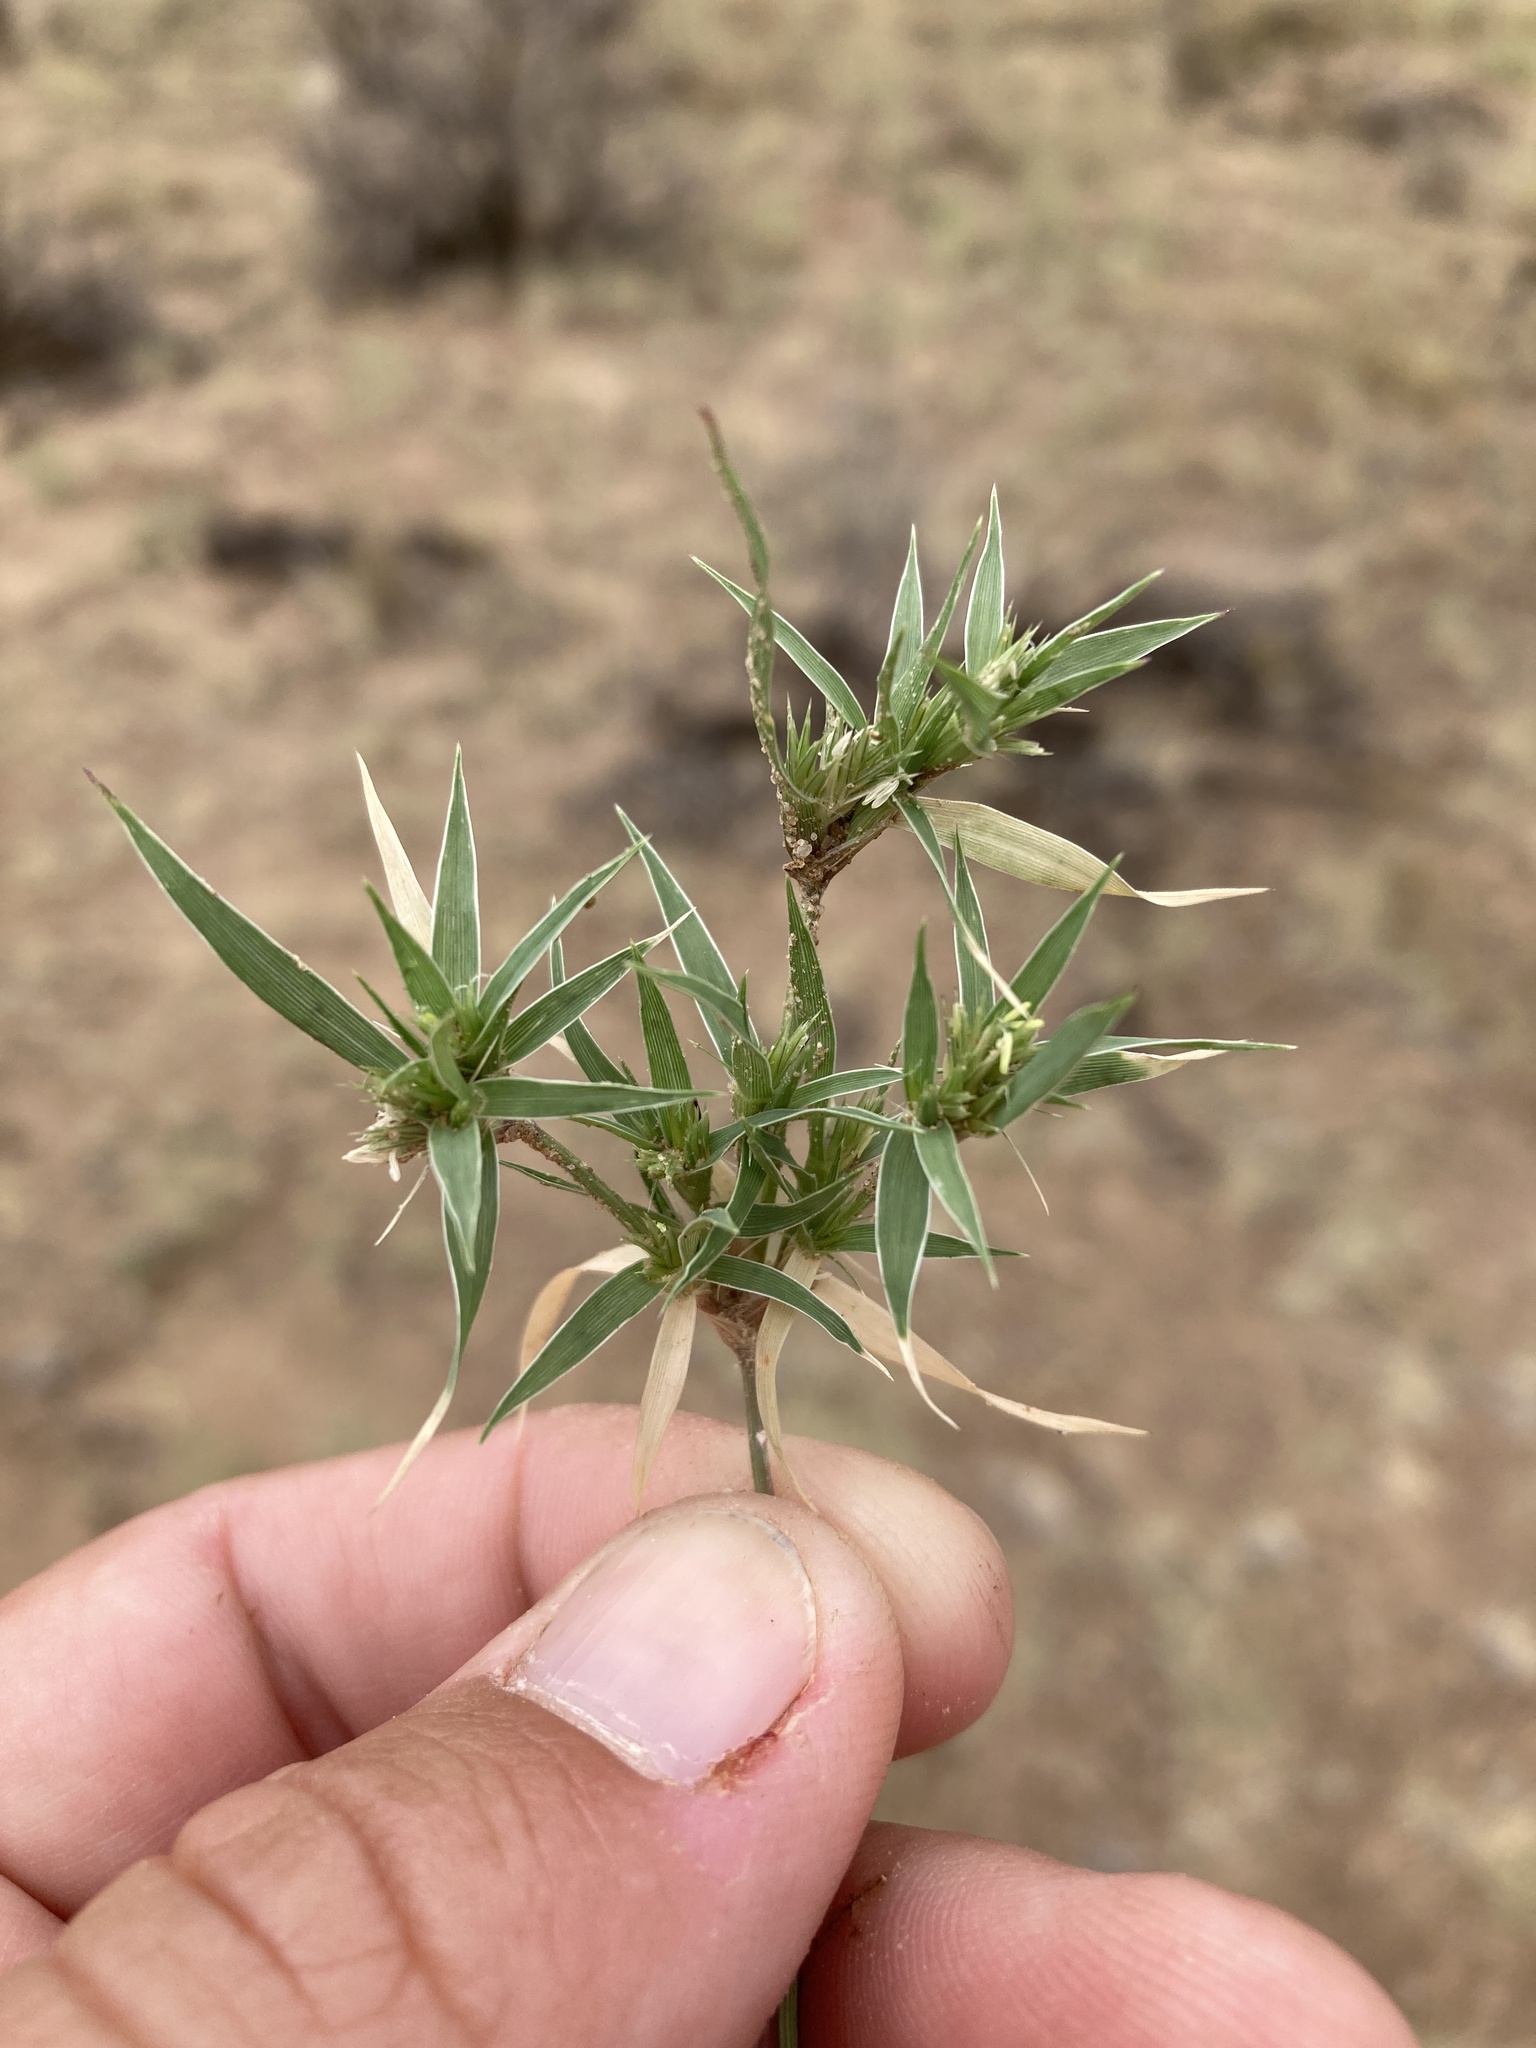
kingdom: Plantae
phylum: Tracheophyta
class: Liliopsida
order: Poales
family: Poaceae
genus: Munroa
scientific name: Munroa squarrosa
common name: False buffalo grass
